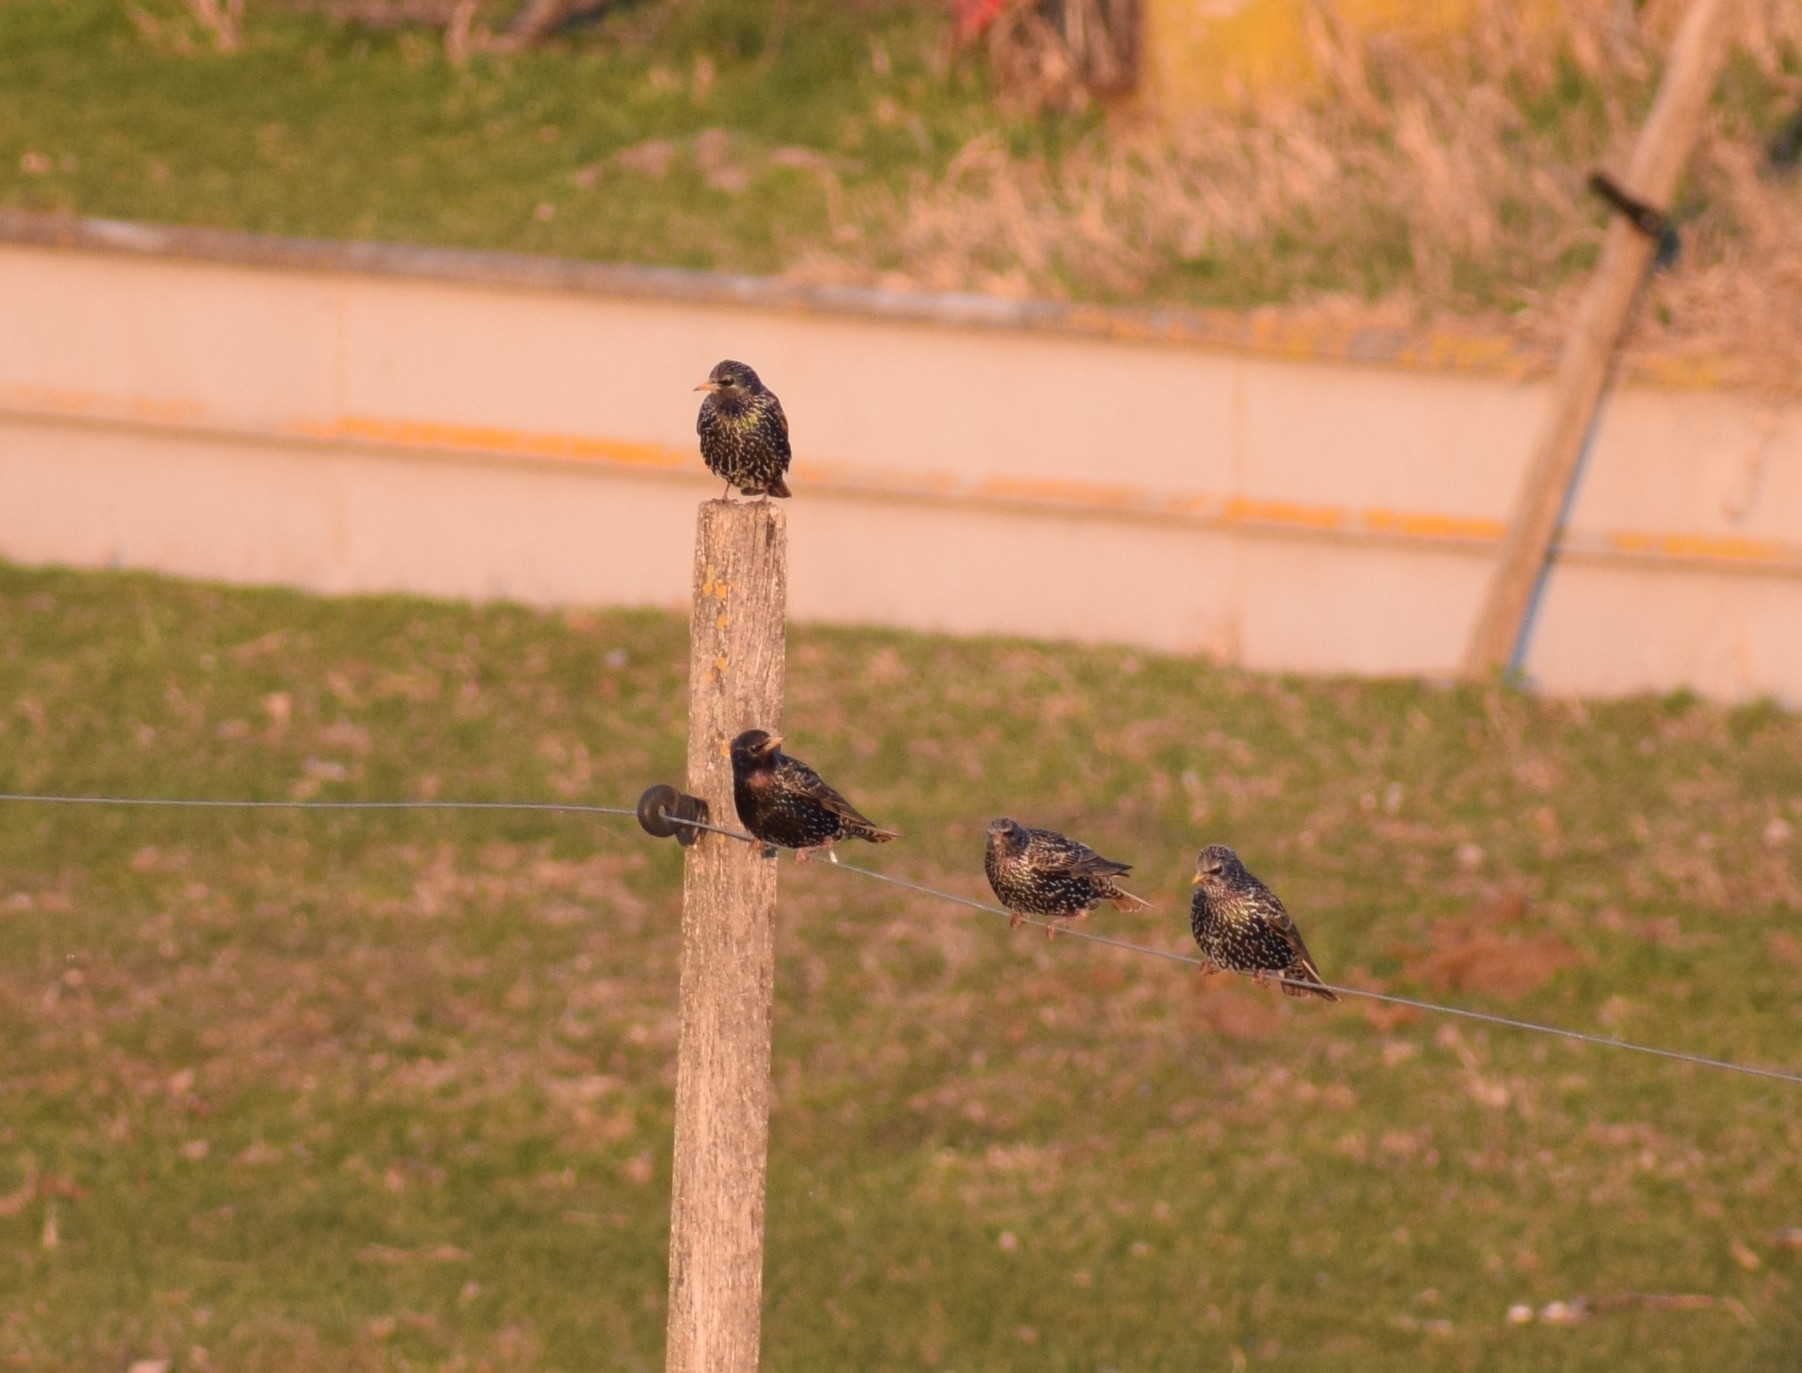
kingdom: Animalia
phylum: Chordata
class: Aves
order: Passeriformes
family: Sturnidae
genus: Sturnus
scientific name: Sturnus vulgaris
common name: Common starling
